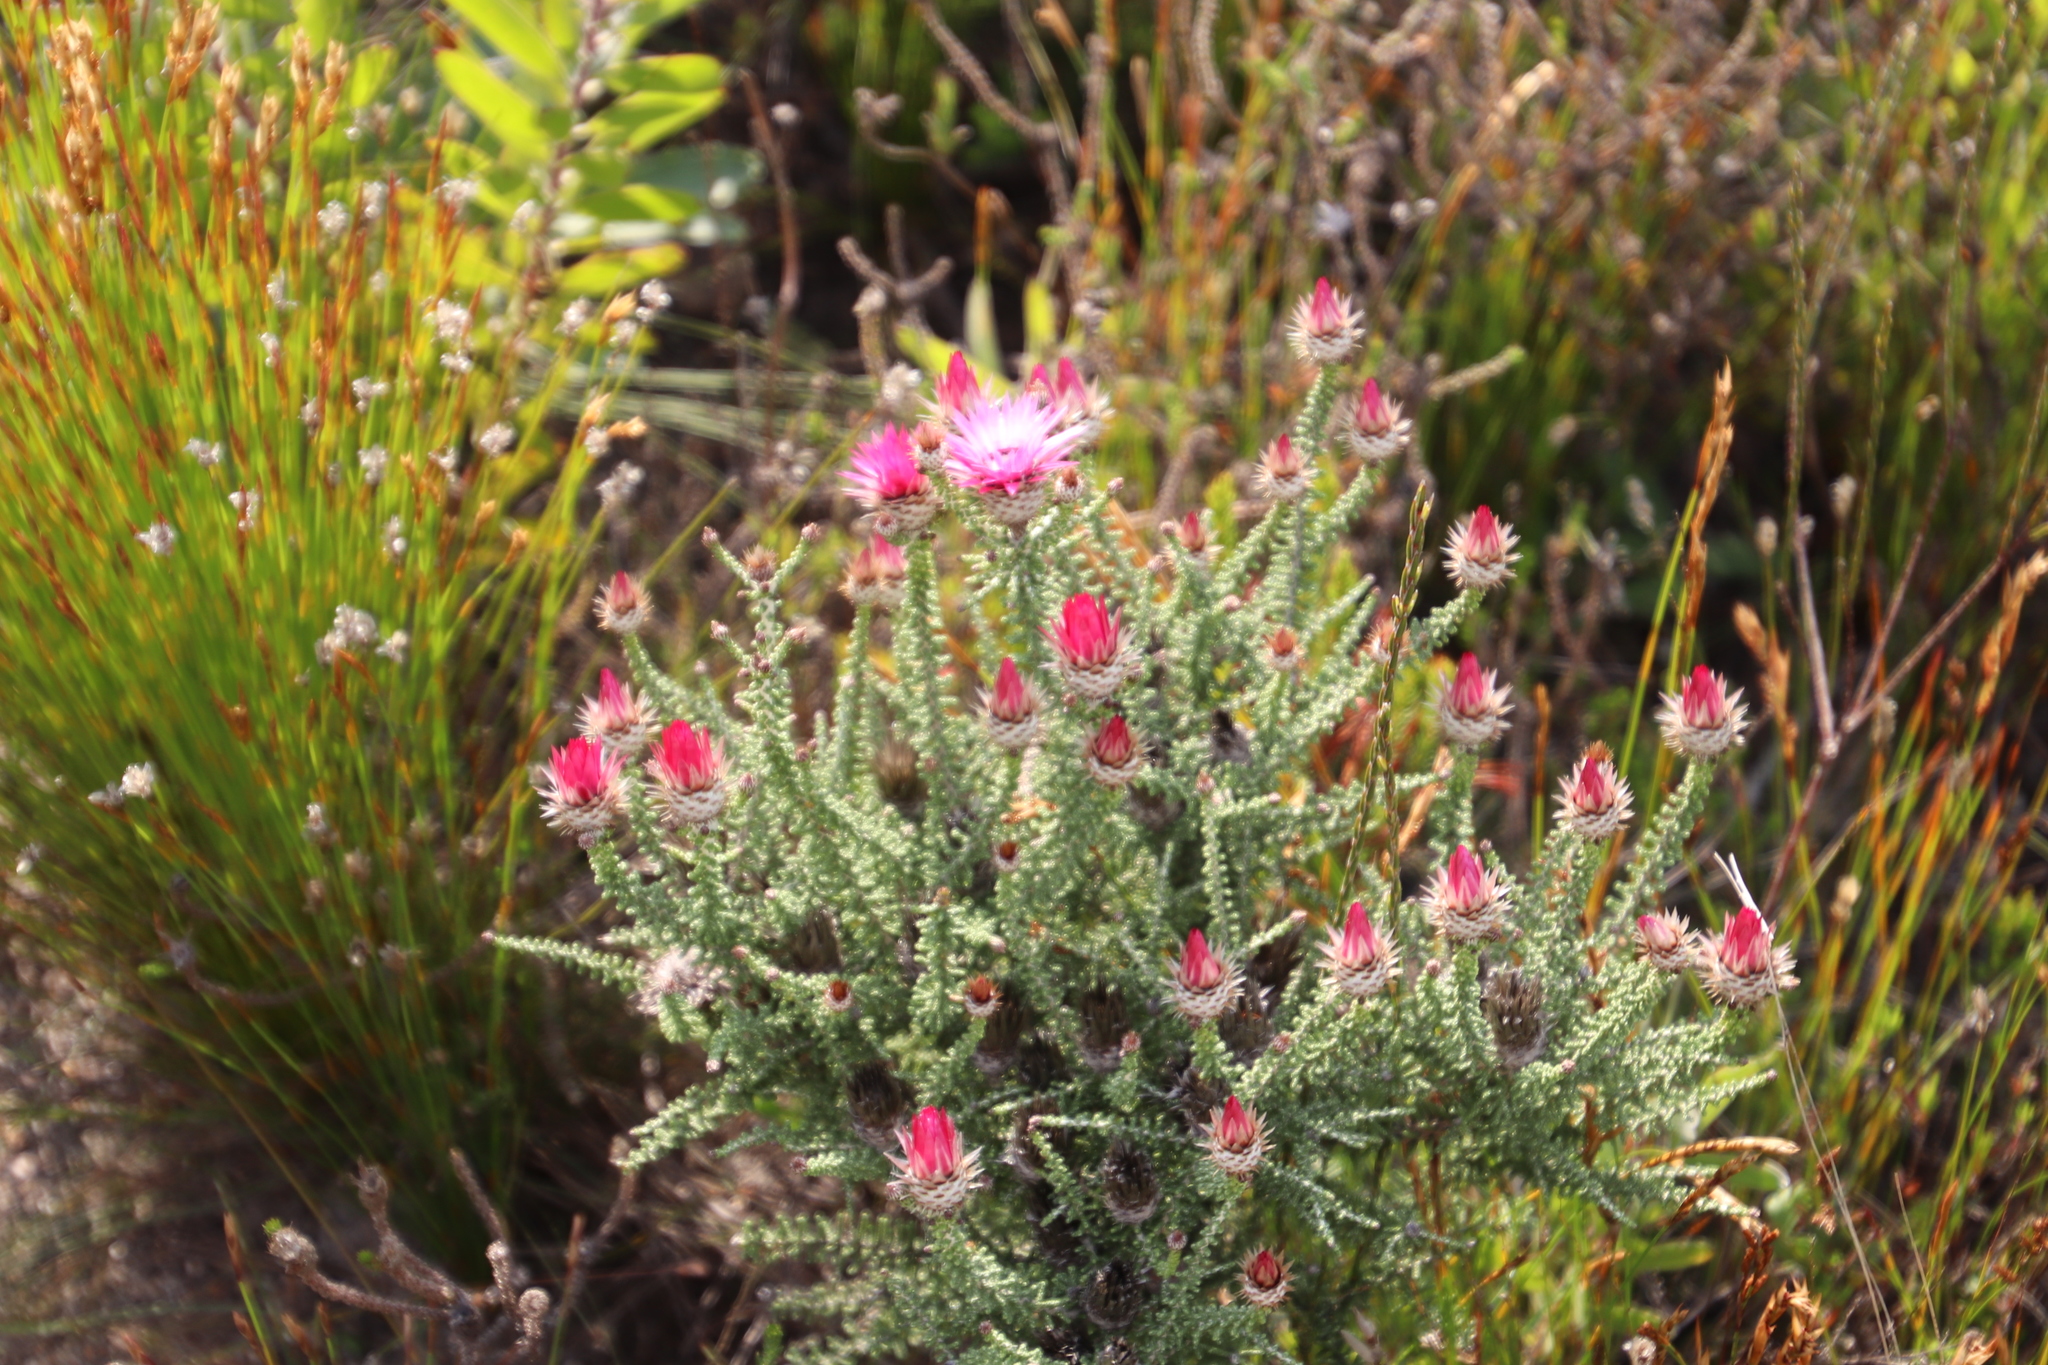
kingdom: Plantae
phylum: Tracheophyta
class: Magnoliopsida
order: Asterales
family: Asteraceae
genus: Phaenocoma
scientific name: Phaenocoma prolifera
